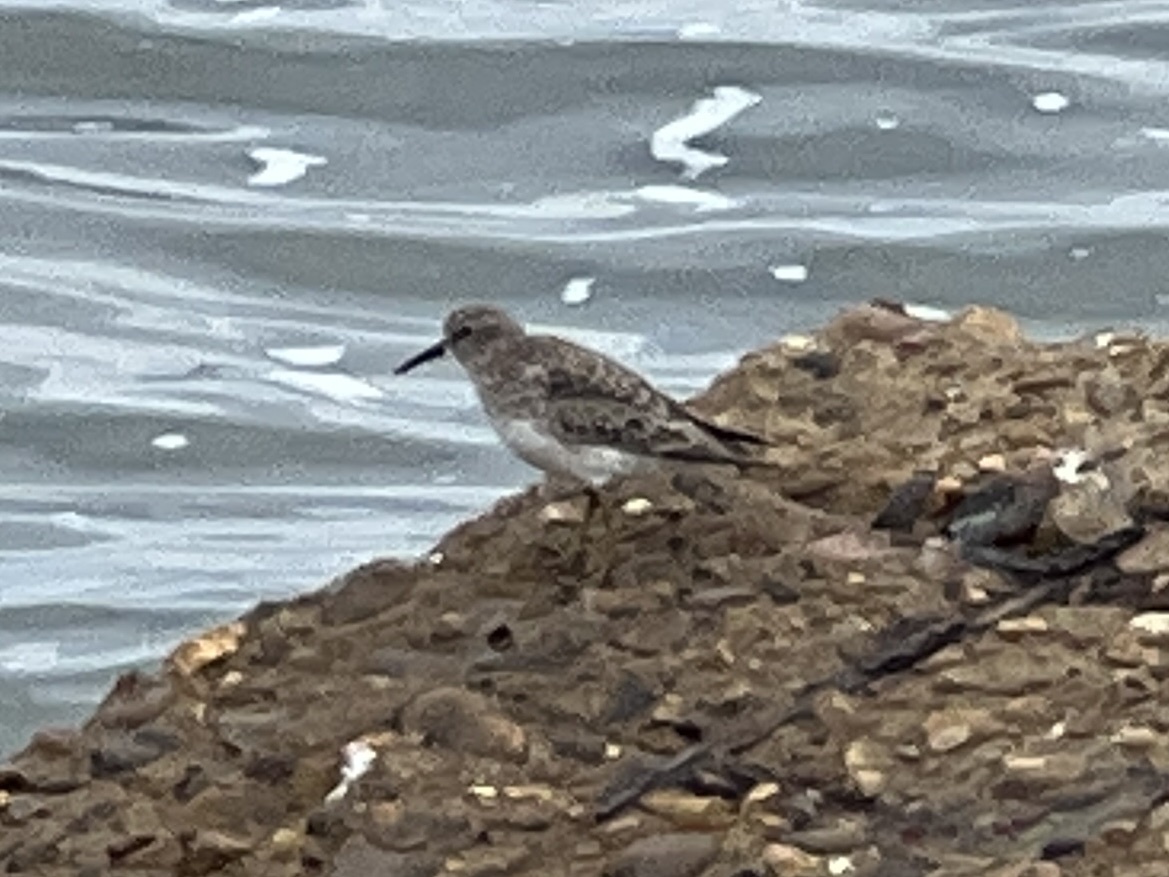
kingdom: Animalia
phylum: Chordata
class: Aves
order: Charadriiformes
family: Scolopacidae
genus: Calidris
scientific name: Calidris minutilla
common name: Least sandpiper
